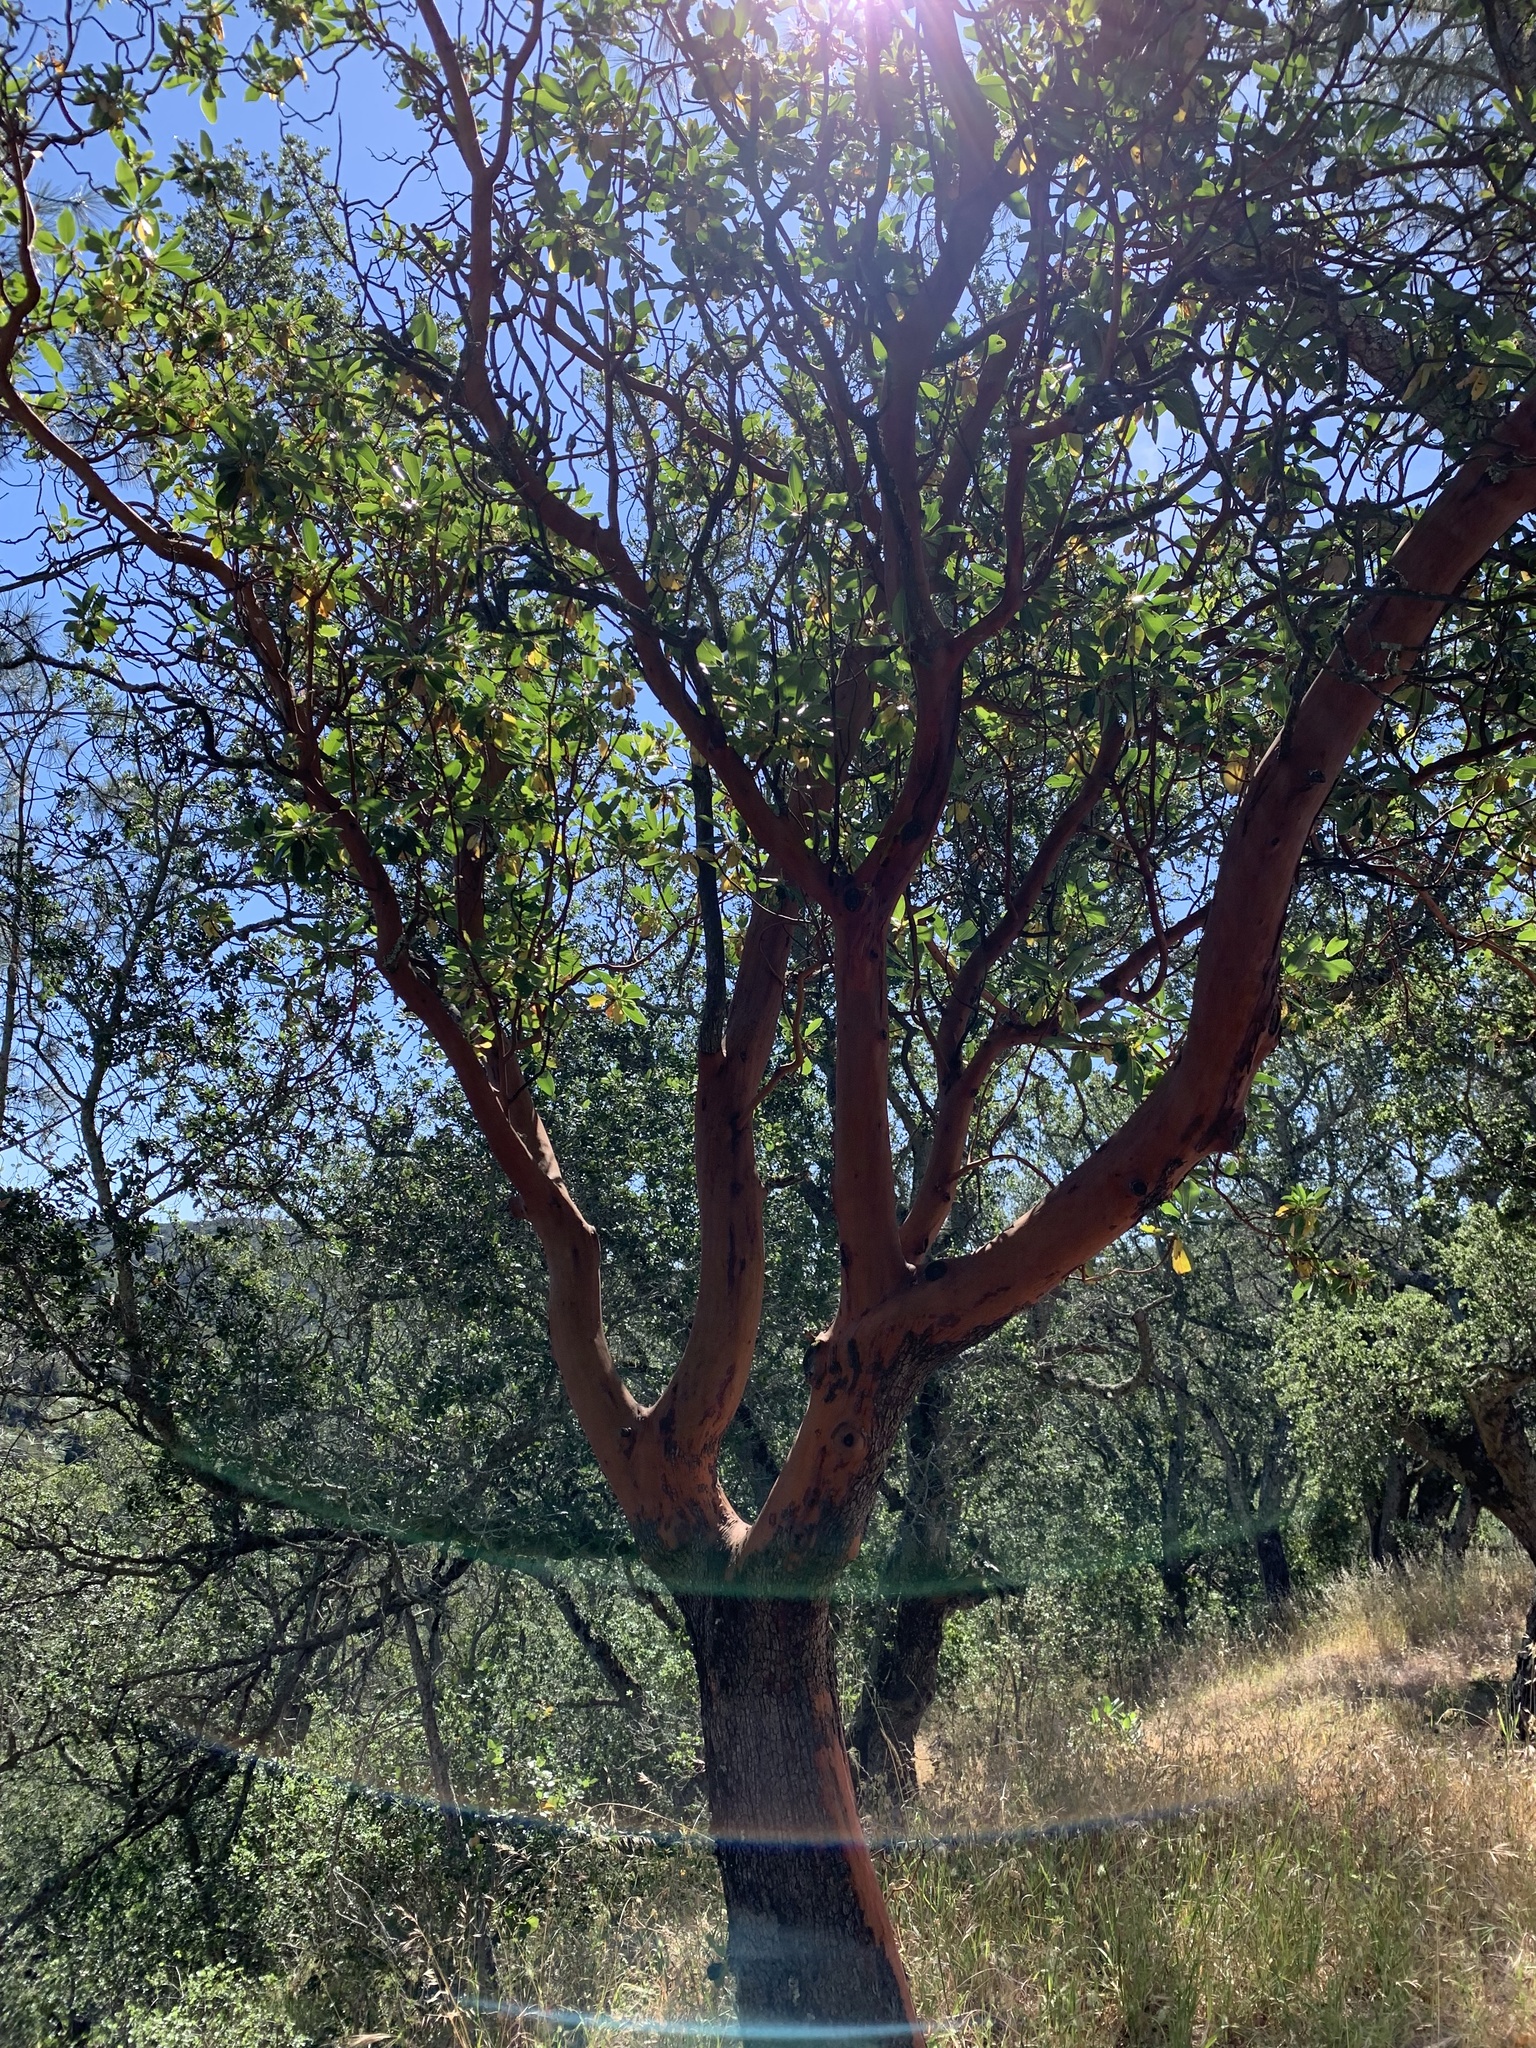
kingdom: Plantae
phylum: Tracheophyta
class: Magnoliopsida
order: Ericales
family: Ericaceae
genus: Arbutus
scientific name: Arbutus menziesii
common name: Pacific madrone
